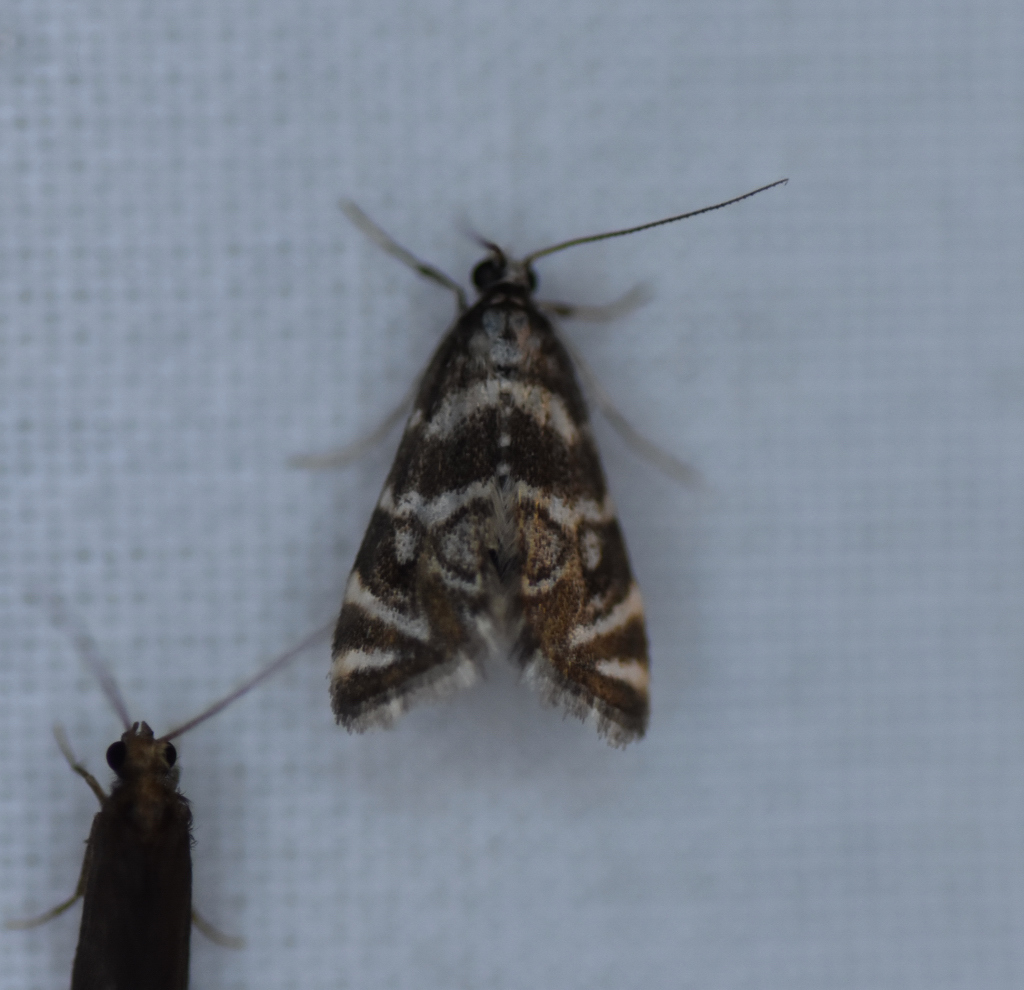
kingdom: Animalia
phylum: Arthropoda
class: Insecta
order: Lepidoptera
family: Crambidae
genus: Petrophila
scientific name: Petrophila canadensis
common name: Canadian petrophila
